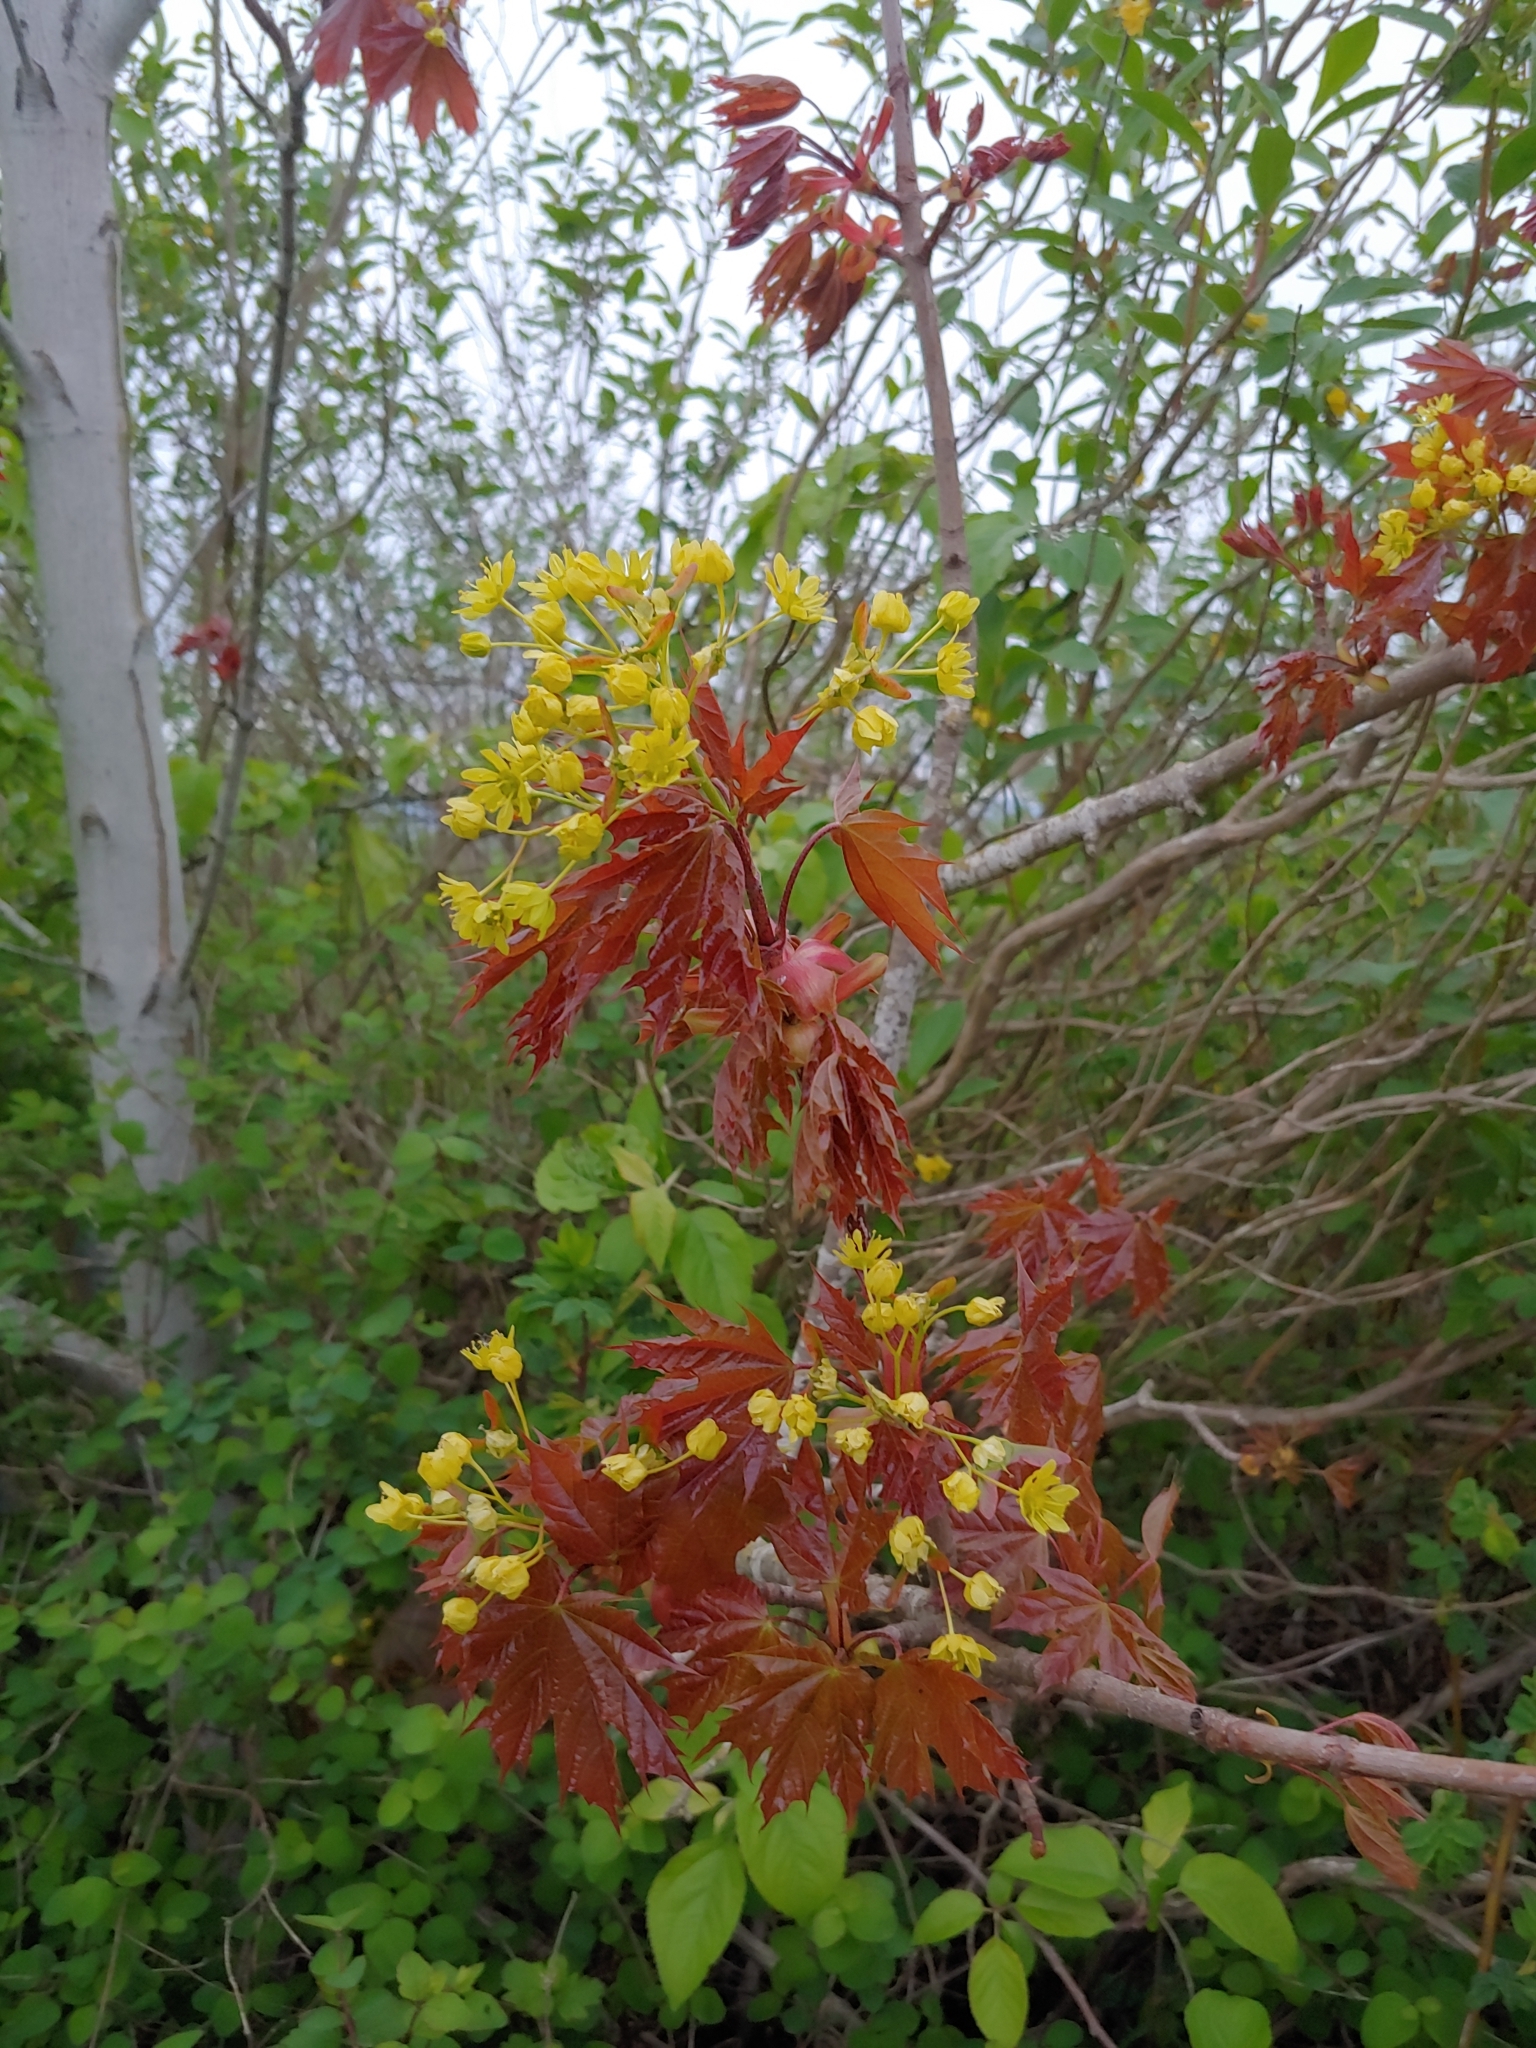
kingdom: Plantae
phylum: Tracheophyta
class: Magnoliopsida
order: Sapindales
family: Sapindaceae
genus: Acer
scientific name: Acer platanoides
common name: Norway maple
